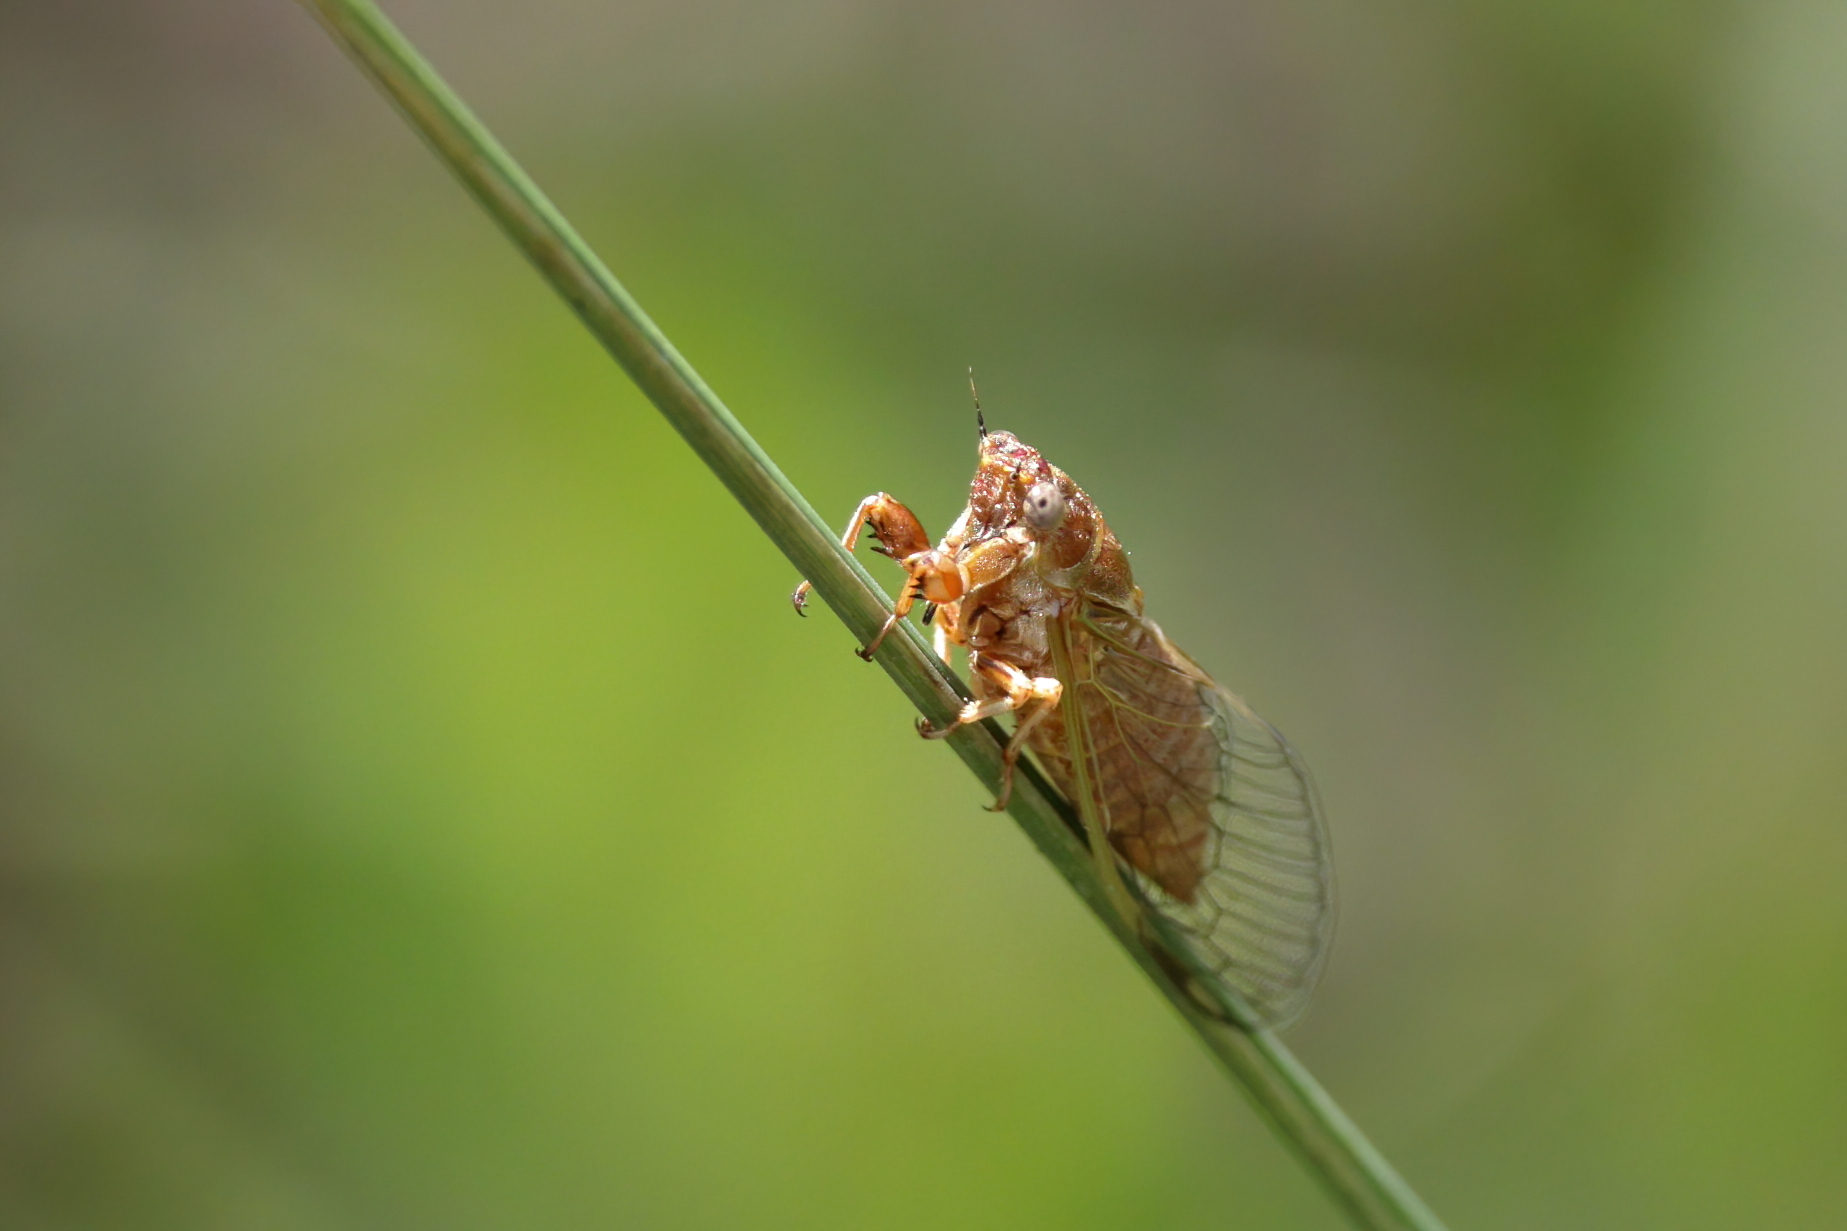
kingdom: Animalia
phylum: Arthropoda
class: Insecta
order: Hemiptera
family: Cicadidae
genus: Cicadettana
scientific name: Cicadettana calliope
